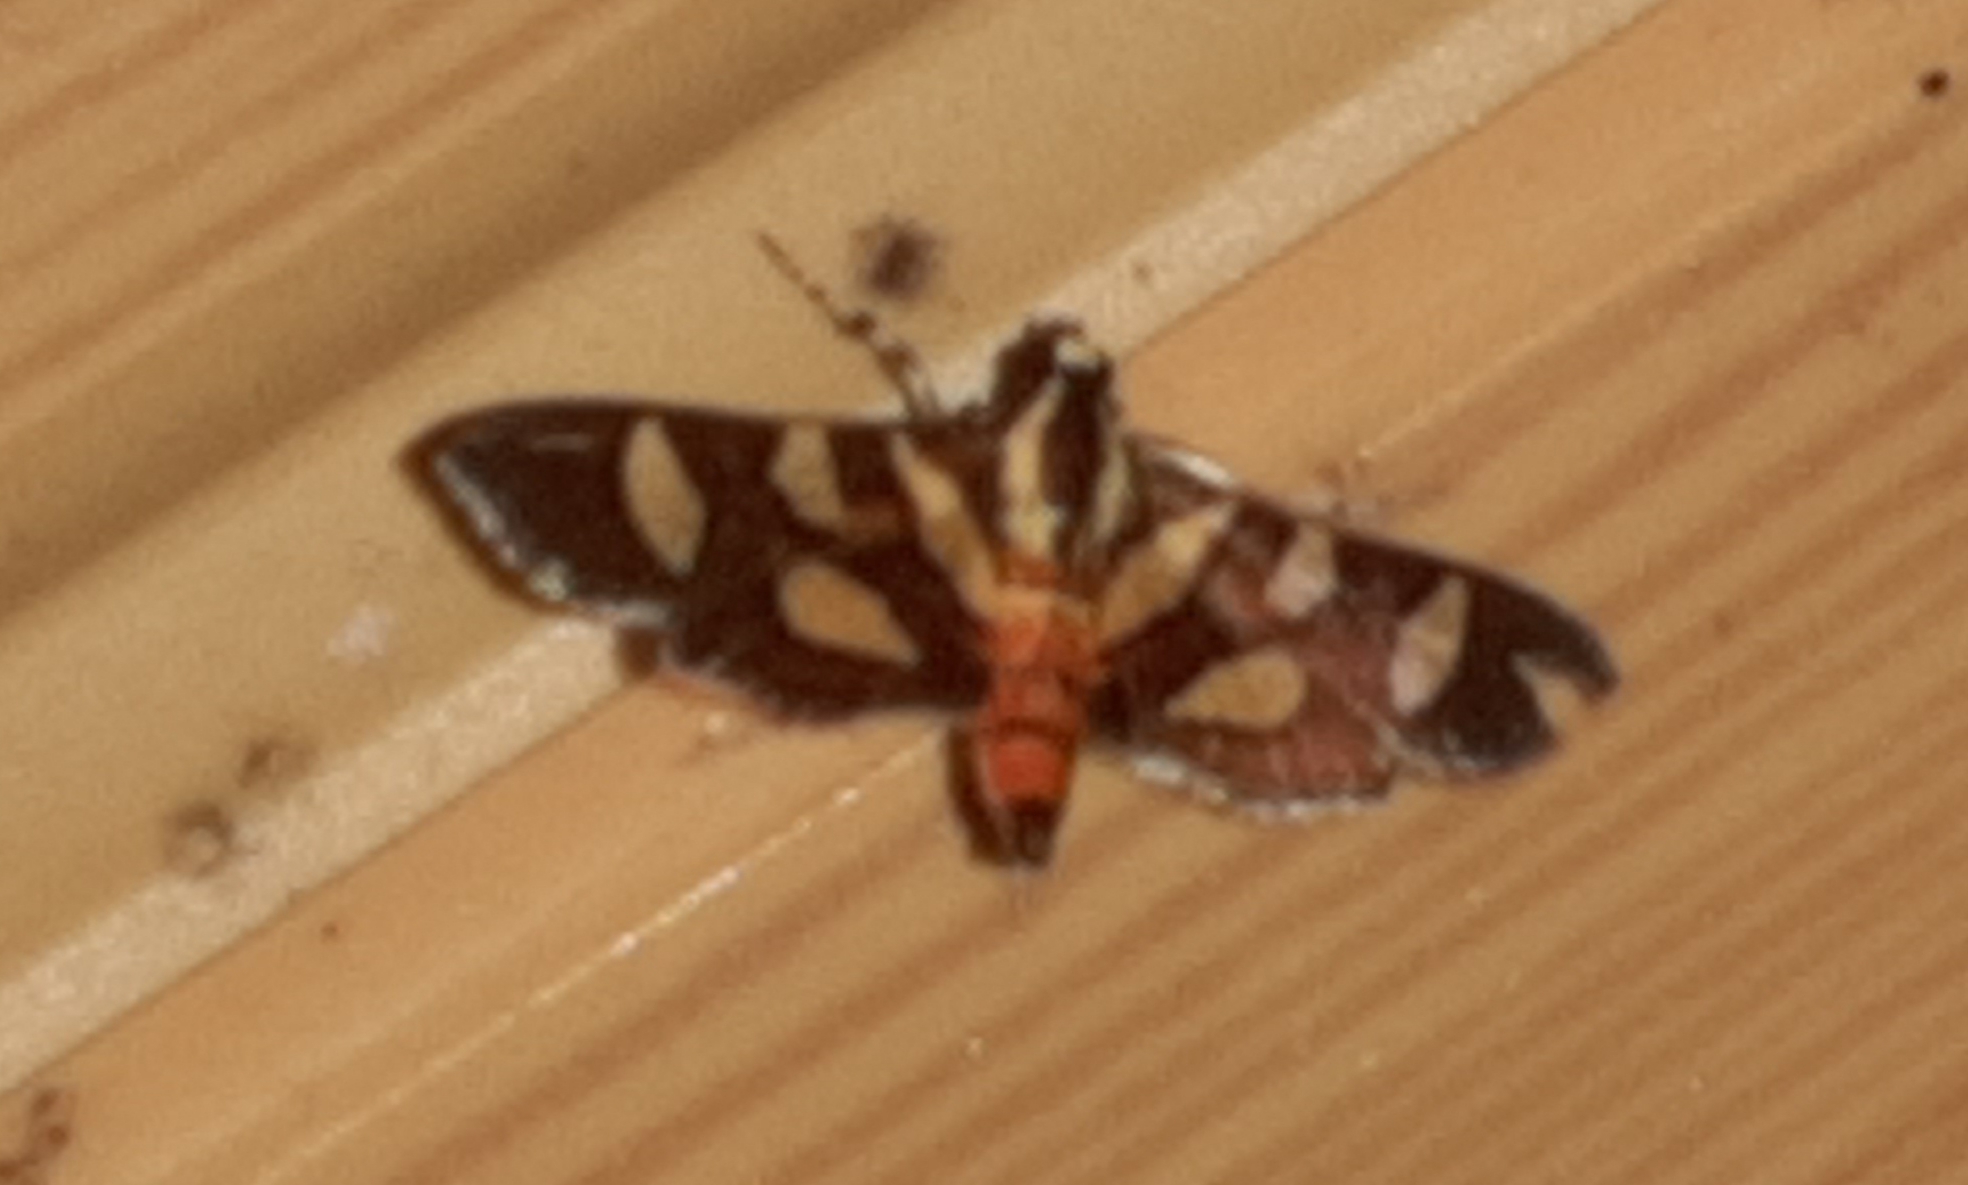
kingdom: Animalia
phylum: Arthropoda
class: Insecta
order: Lepidoptera
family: Crambidae
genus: Syngamia
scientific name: Syngamia florella
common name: Orange-spotted flower moth
